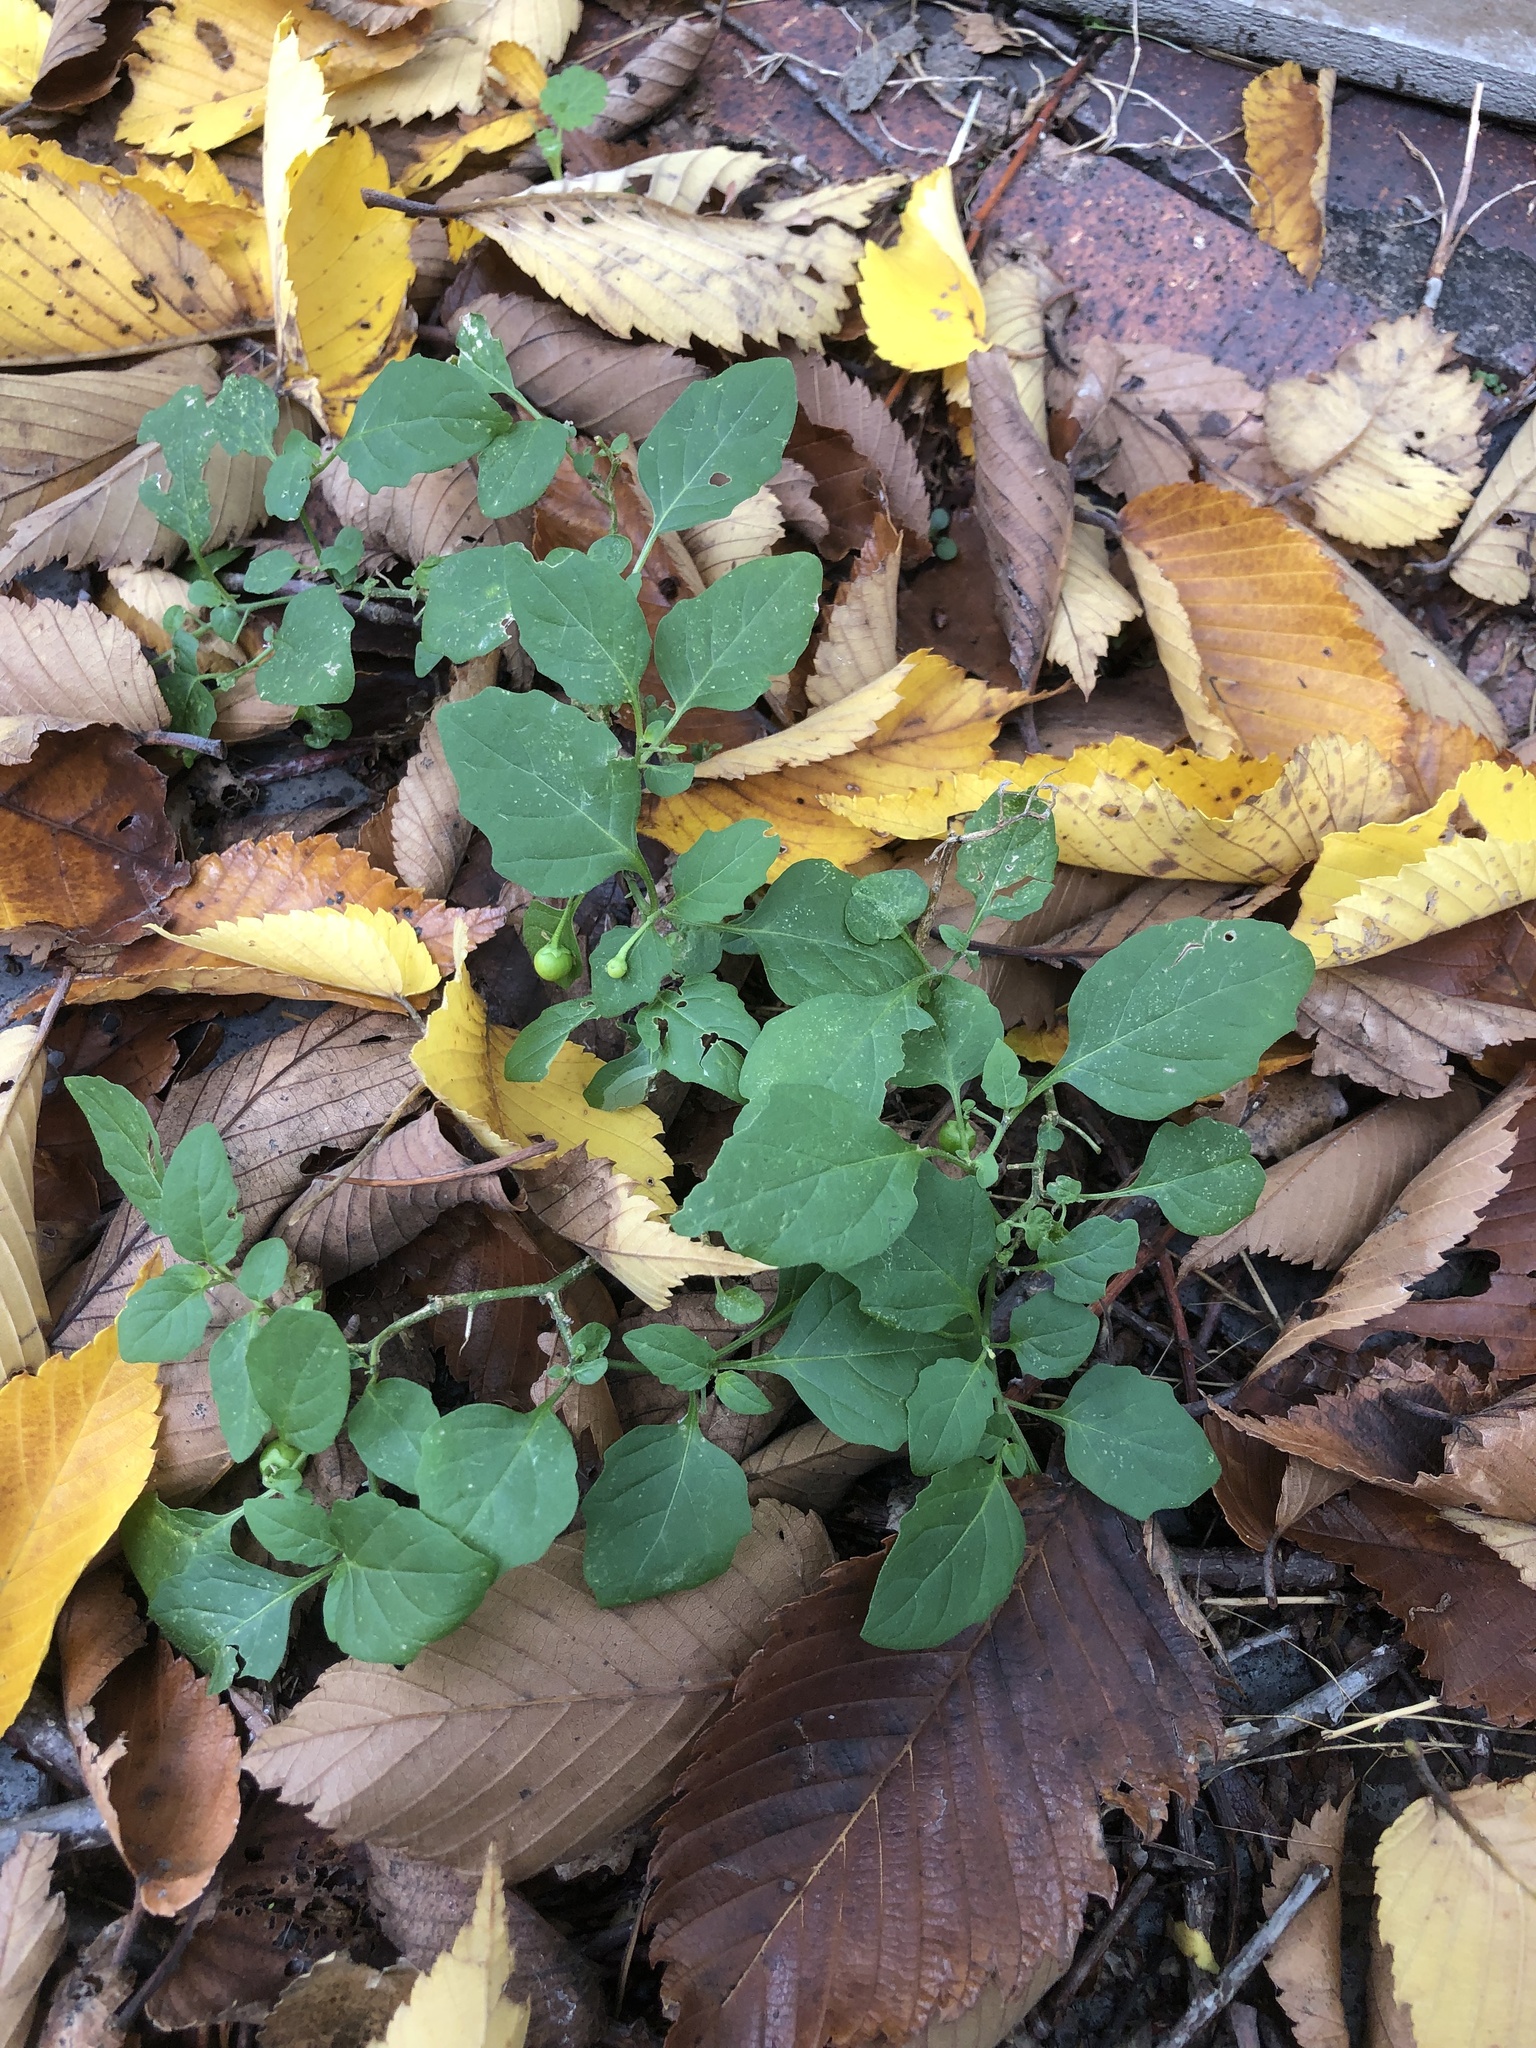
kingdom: Plantae
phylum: Tracheophyta
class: Magnoliopsida
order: Solanales
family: Solanaceae
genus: Solanum
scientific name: Solanum emulans
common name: Eastern black nightshade
